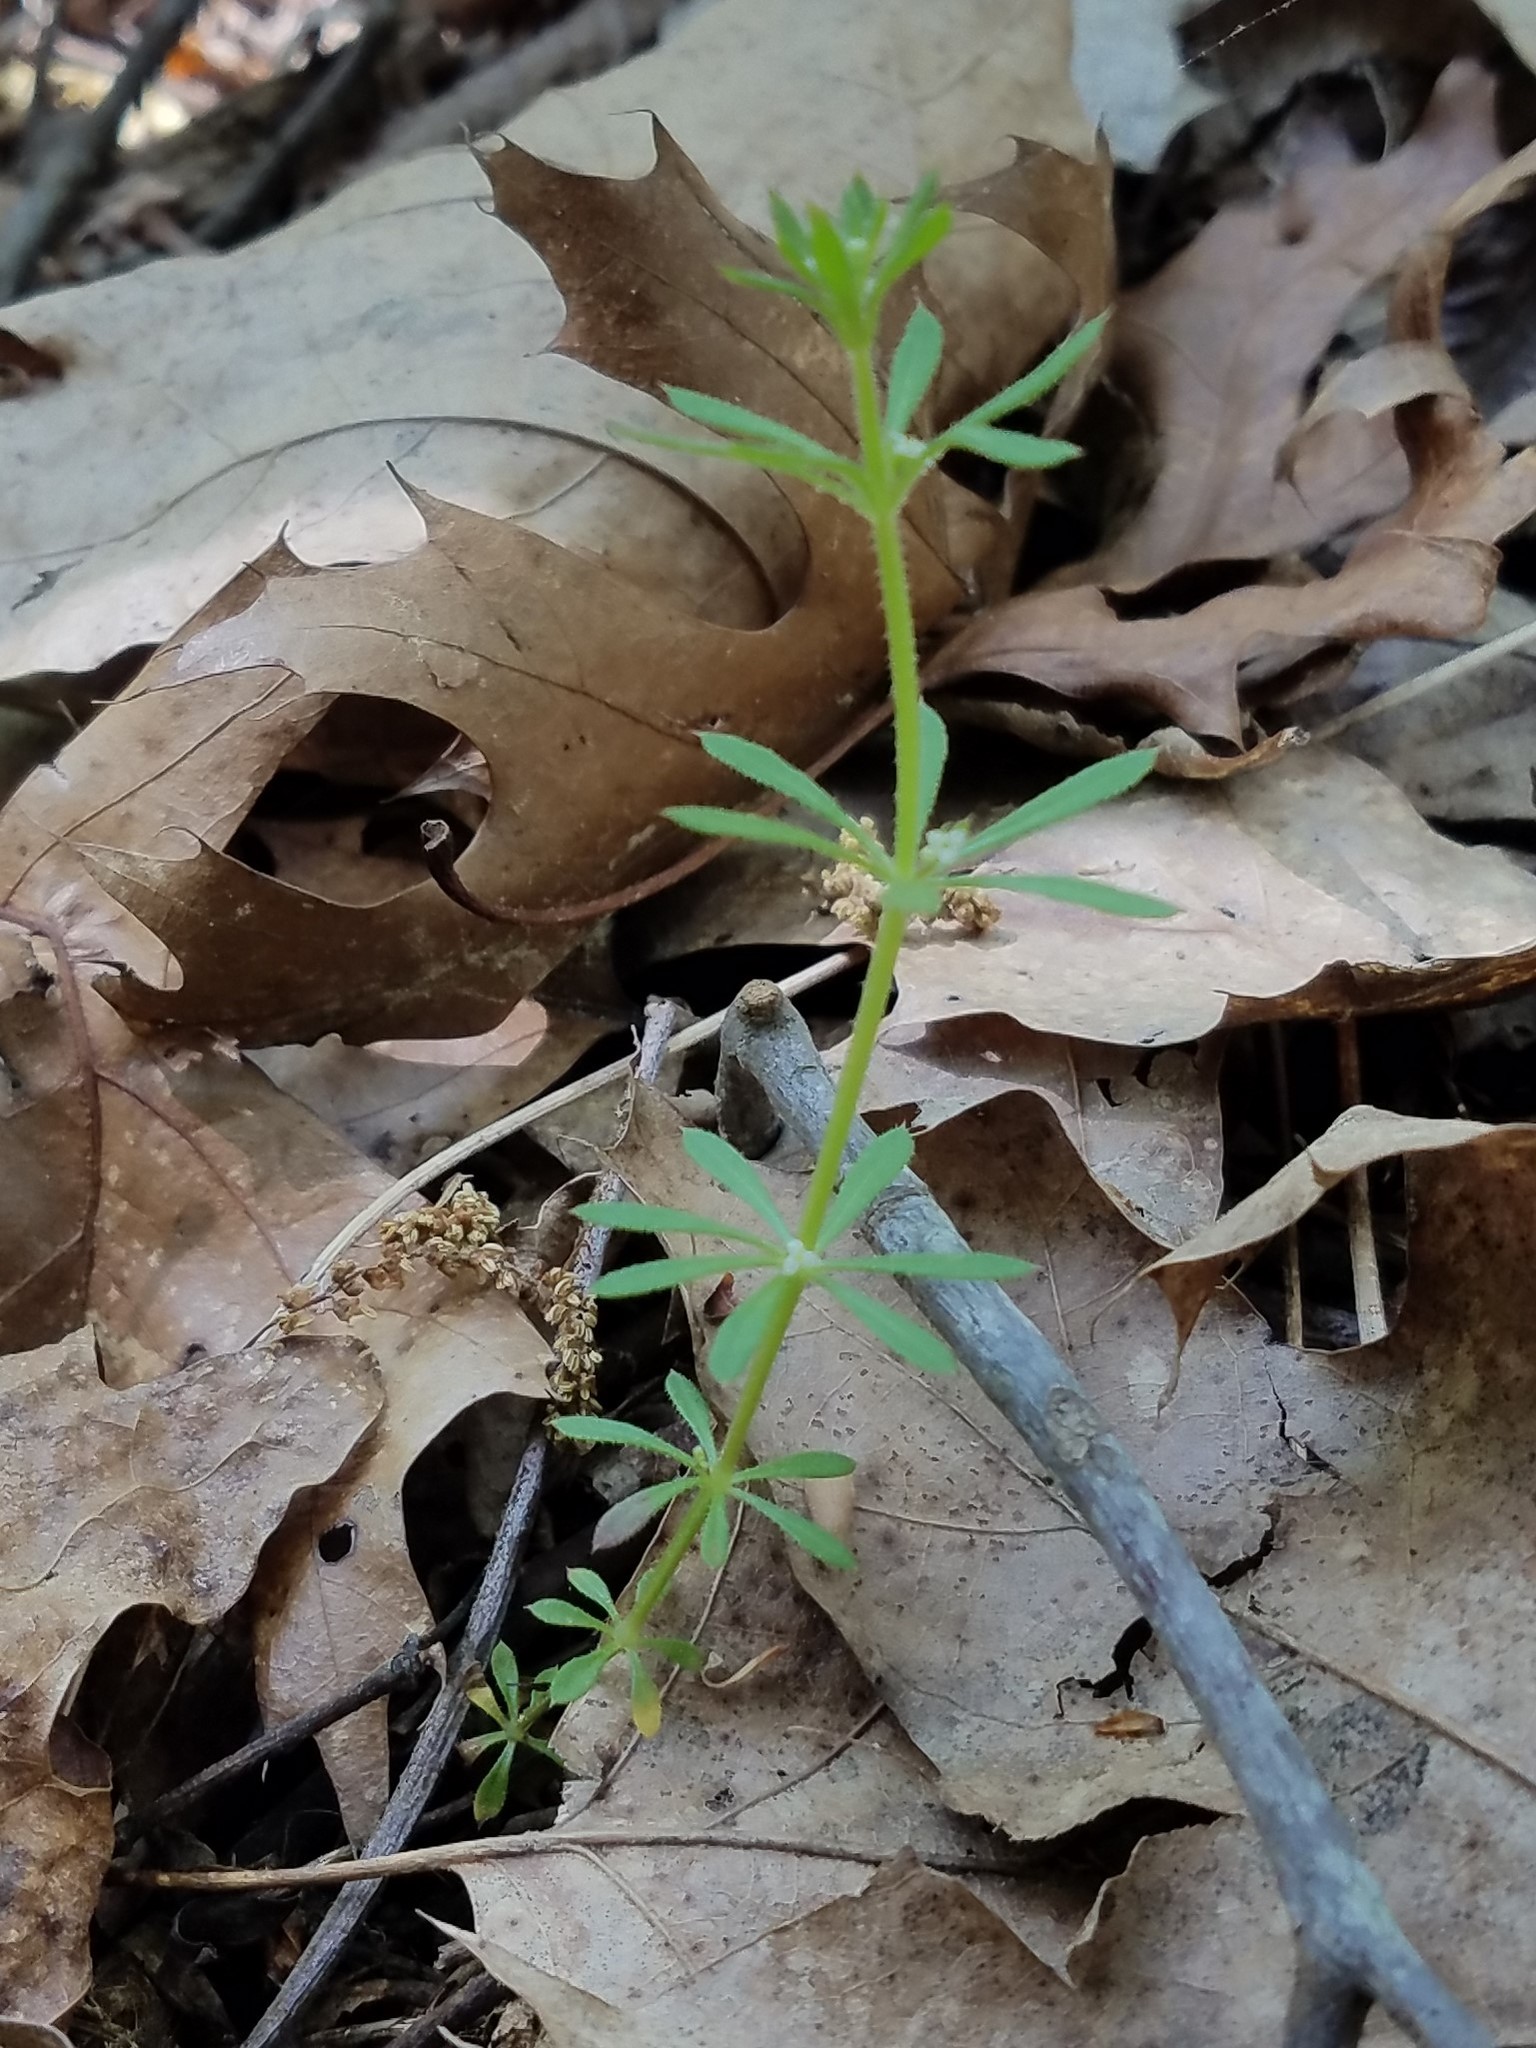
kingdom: Plantae
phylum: Tracheophyta
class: Magnoliopsida
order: Gentianales
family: Rubiaceae
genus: Galium
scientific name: Galium aparine
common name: Cleavers
